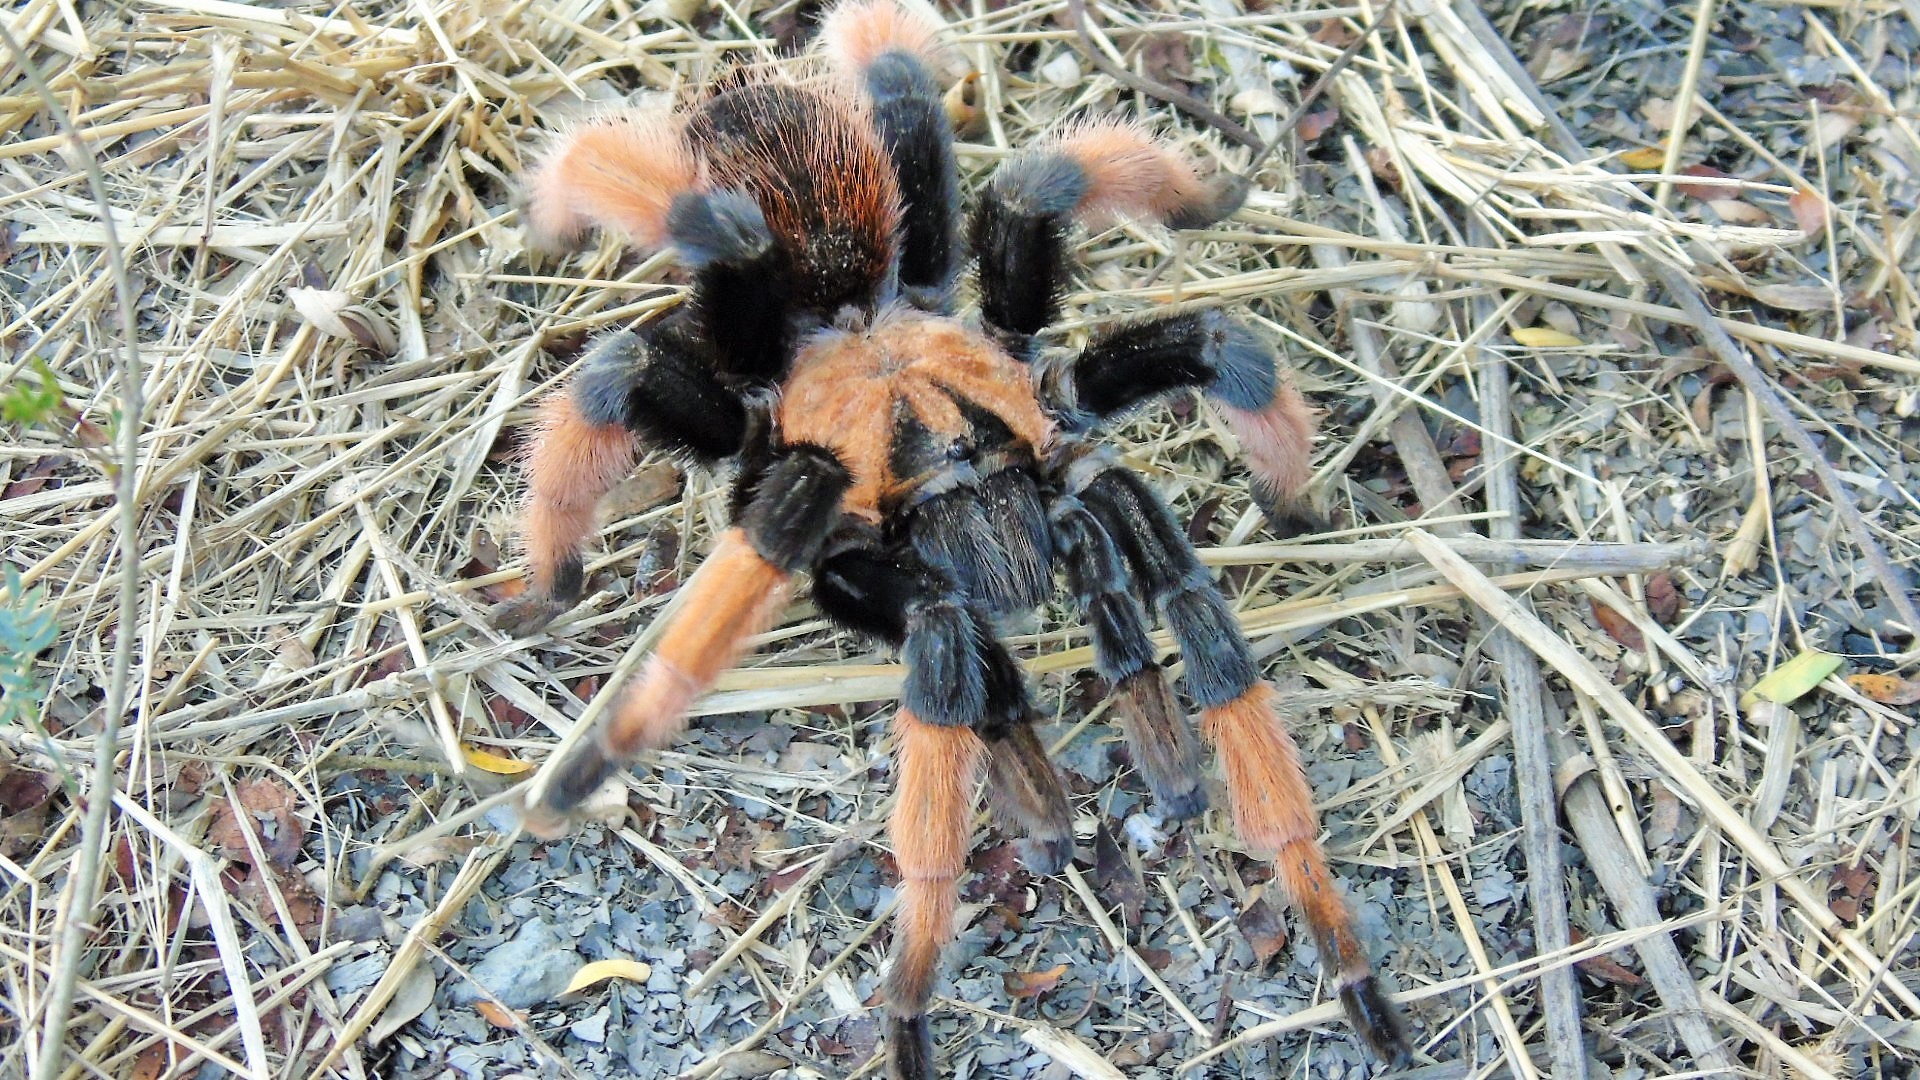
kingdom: Animalia
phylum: Arthropoda
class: Arachnida
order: Araneae
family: Theraphosidae
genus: Brachypelma
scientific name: Brachypelma emilia
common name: Mexican redleg
